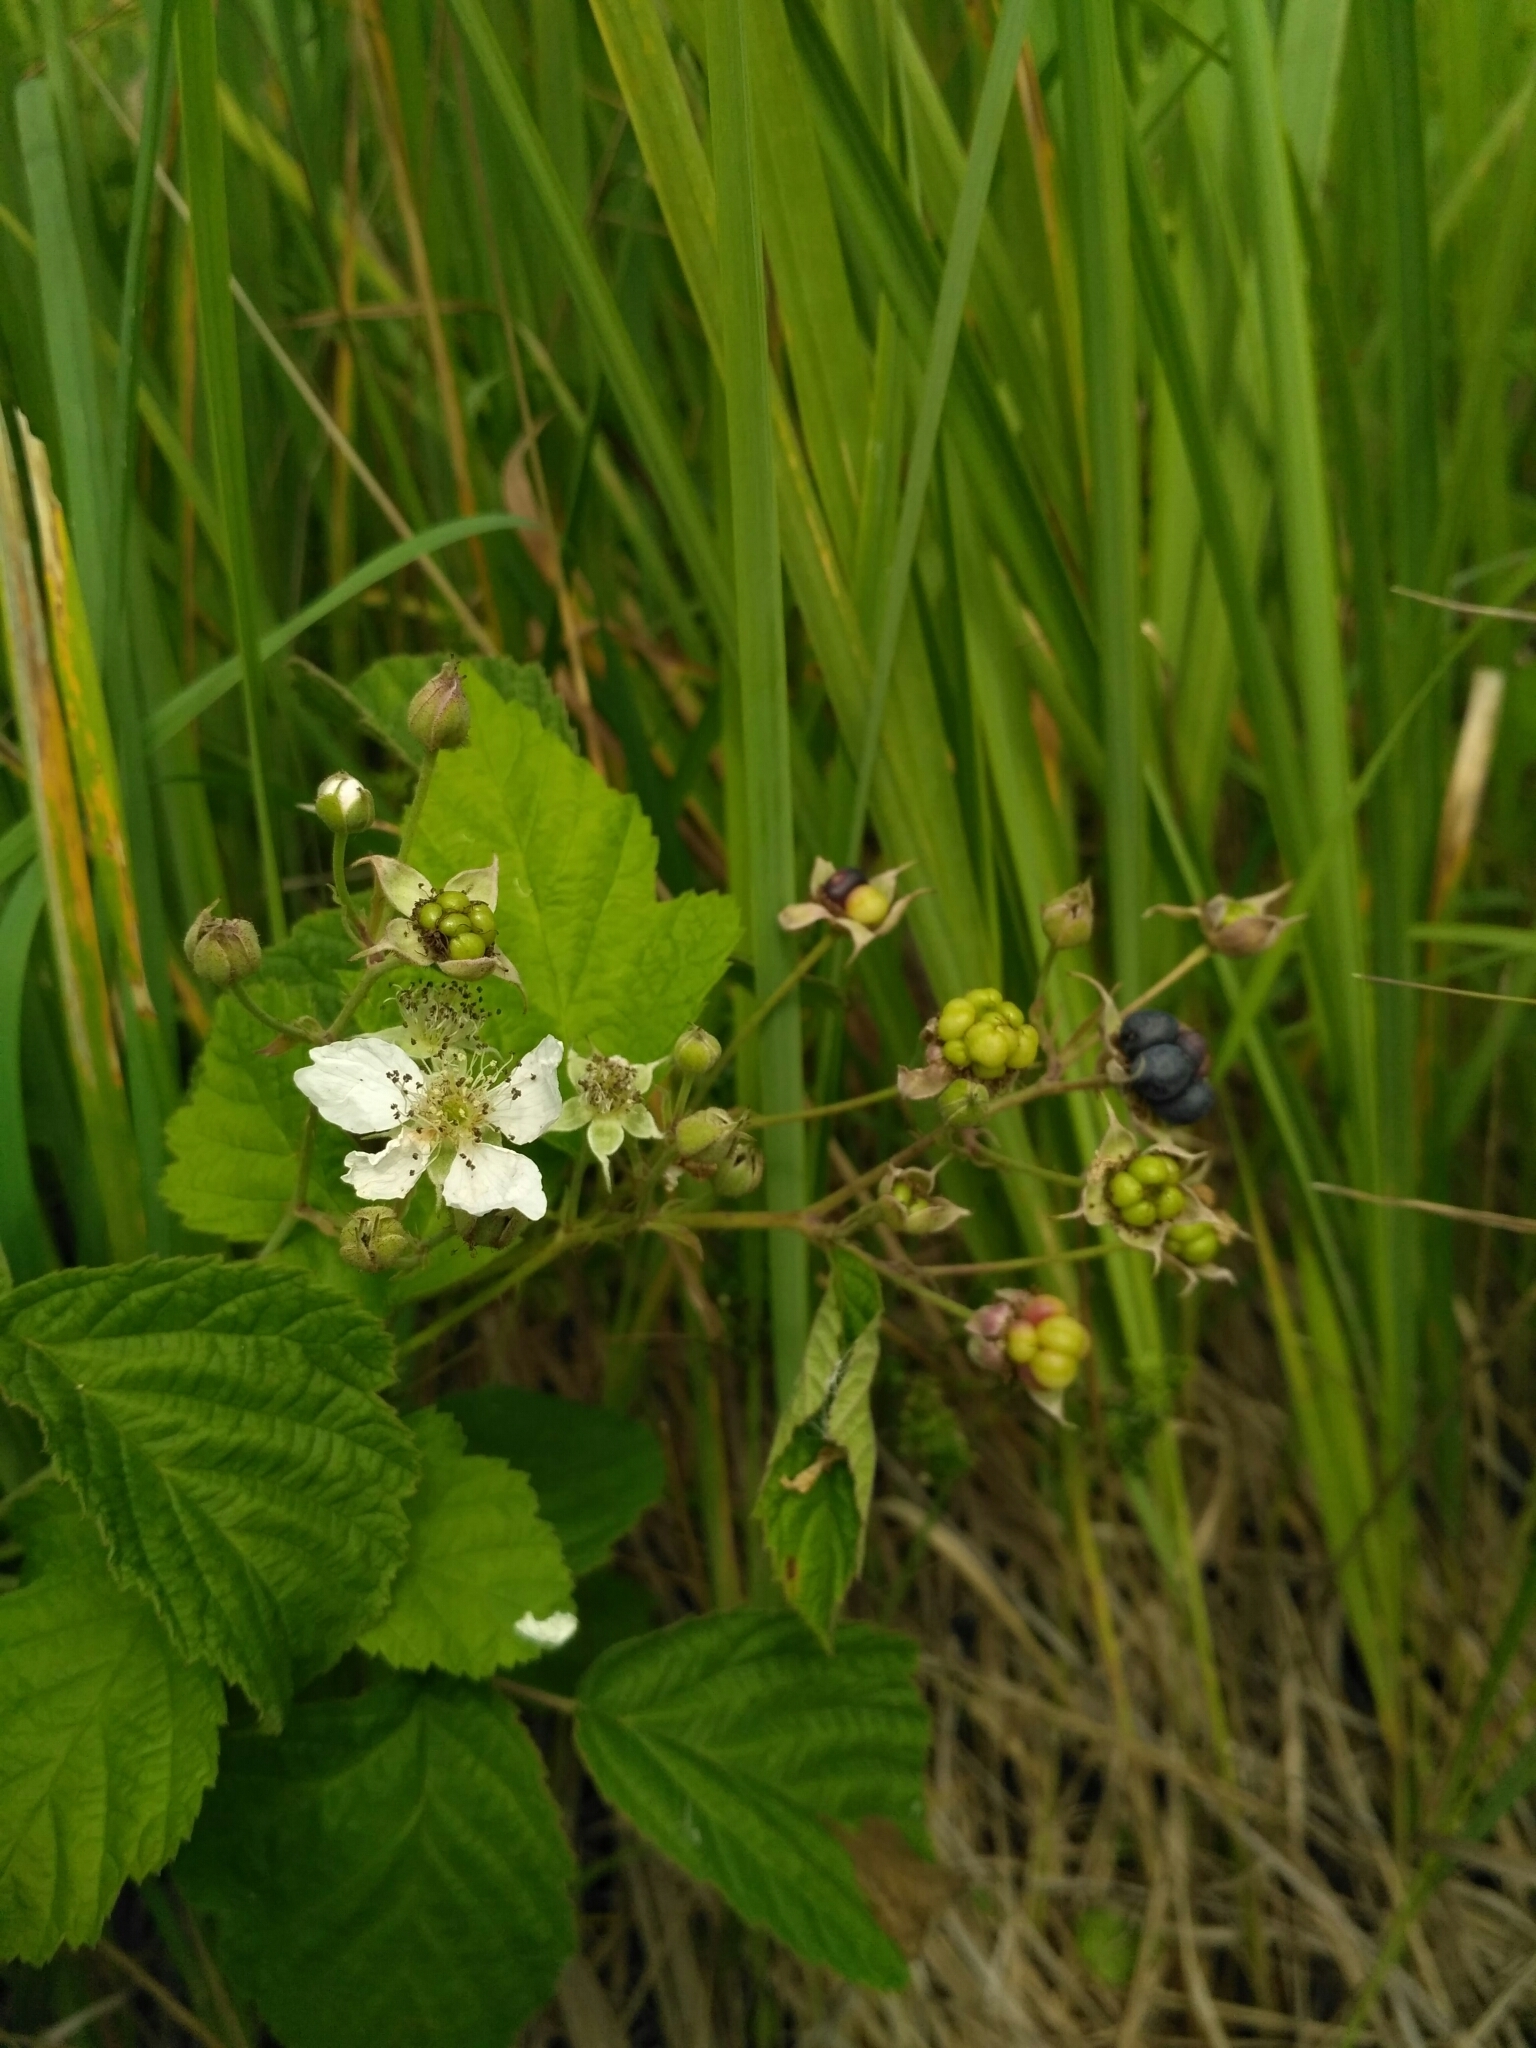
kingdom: Plantae
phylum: Tracheophyta
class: Magnoliopsida
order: Rosales
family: Rosaceae
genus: Rubus
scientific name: Rubus caesius
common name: Dewberry
